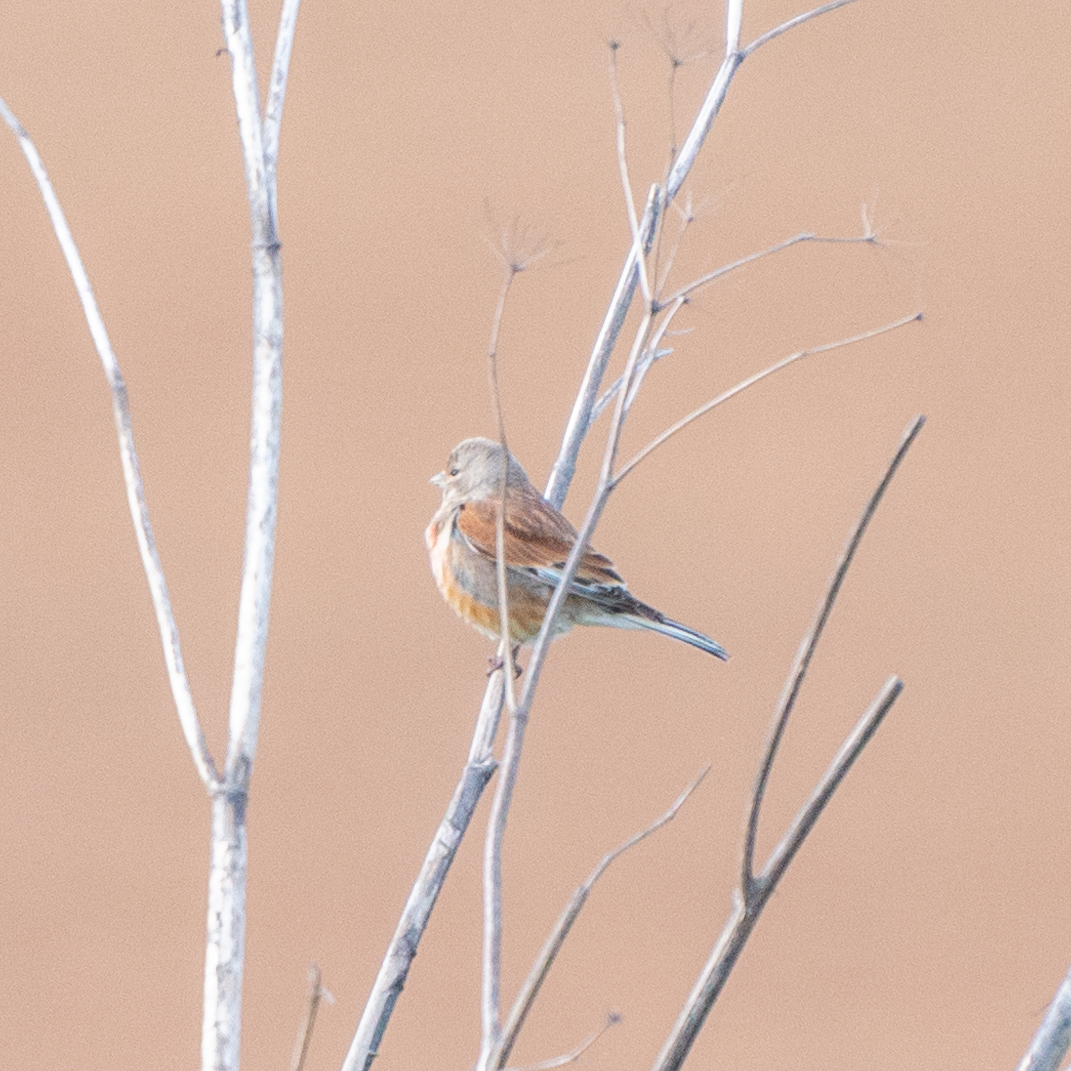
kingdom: Animalia
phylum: Chordata
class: Aves
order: Passeriformes
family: Fringillidae
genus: Linaria
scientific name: Linaria cannabina
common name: Common linnet
